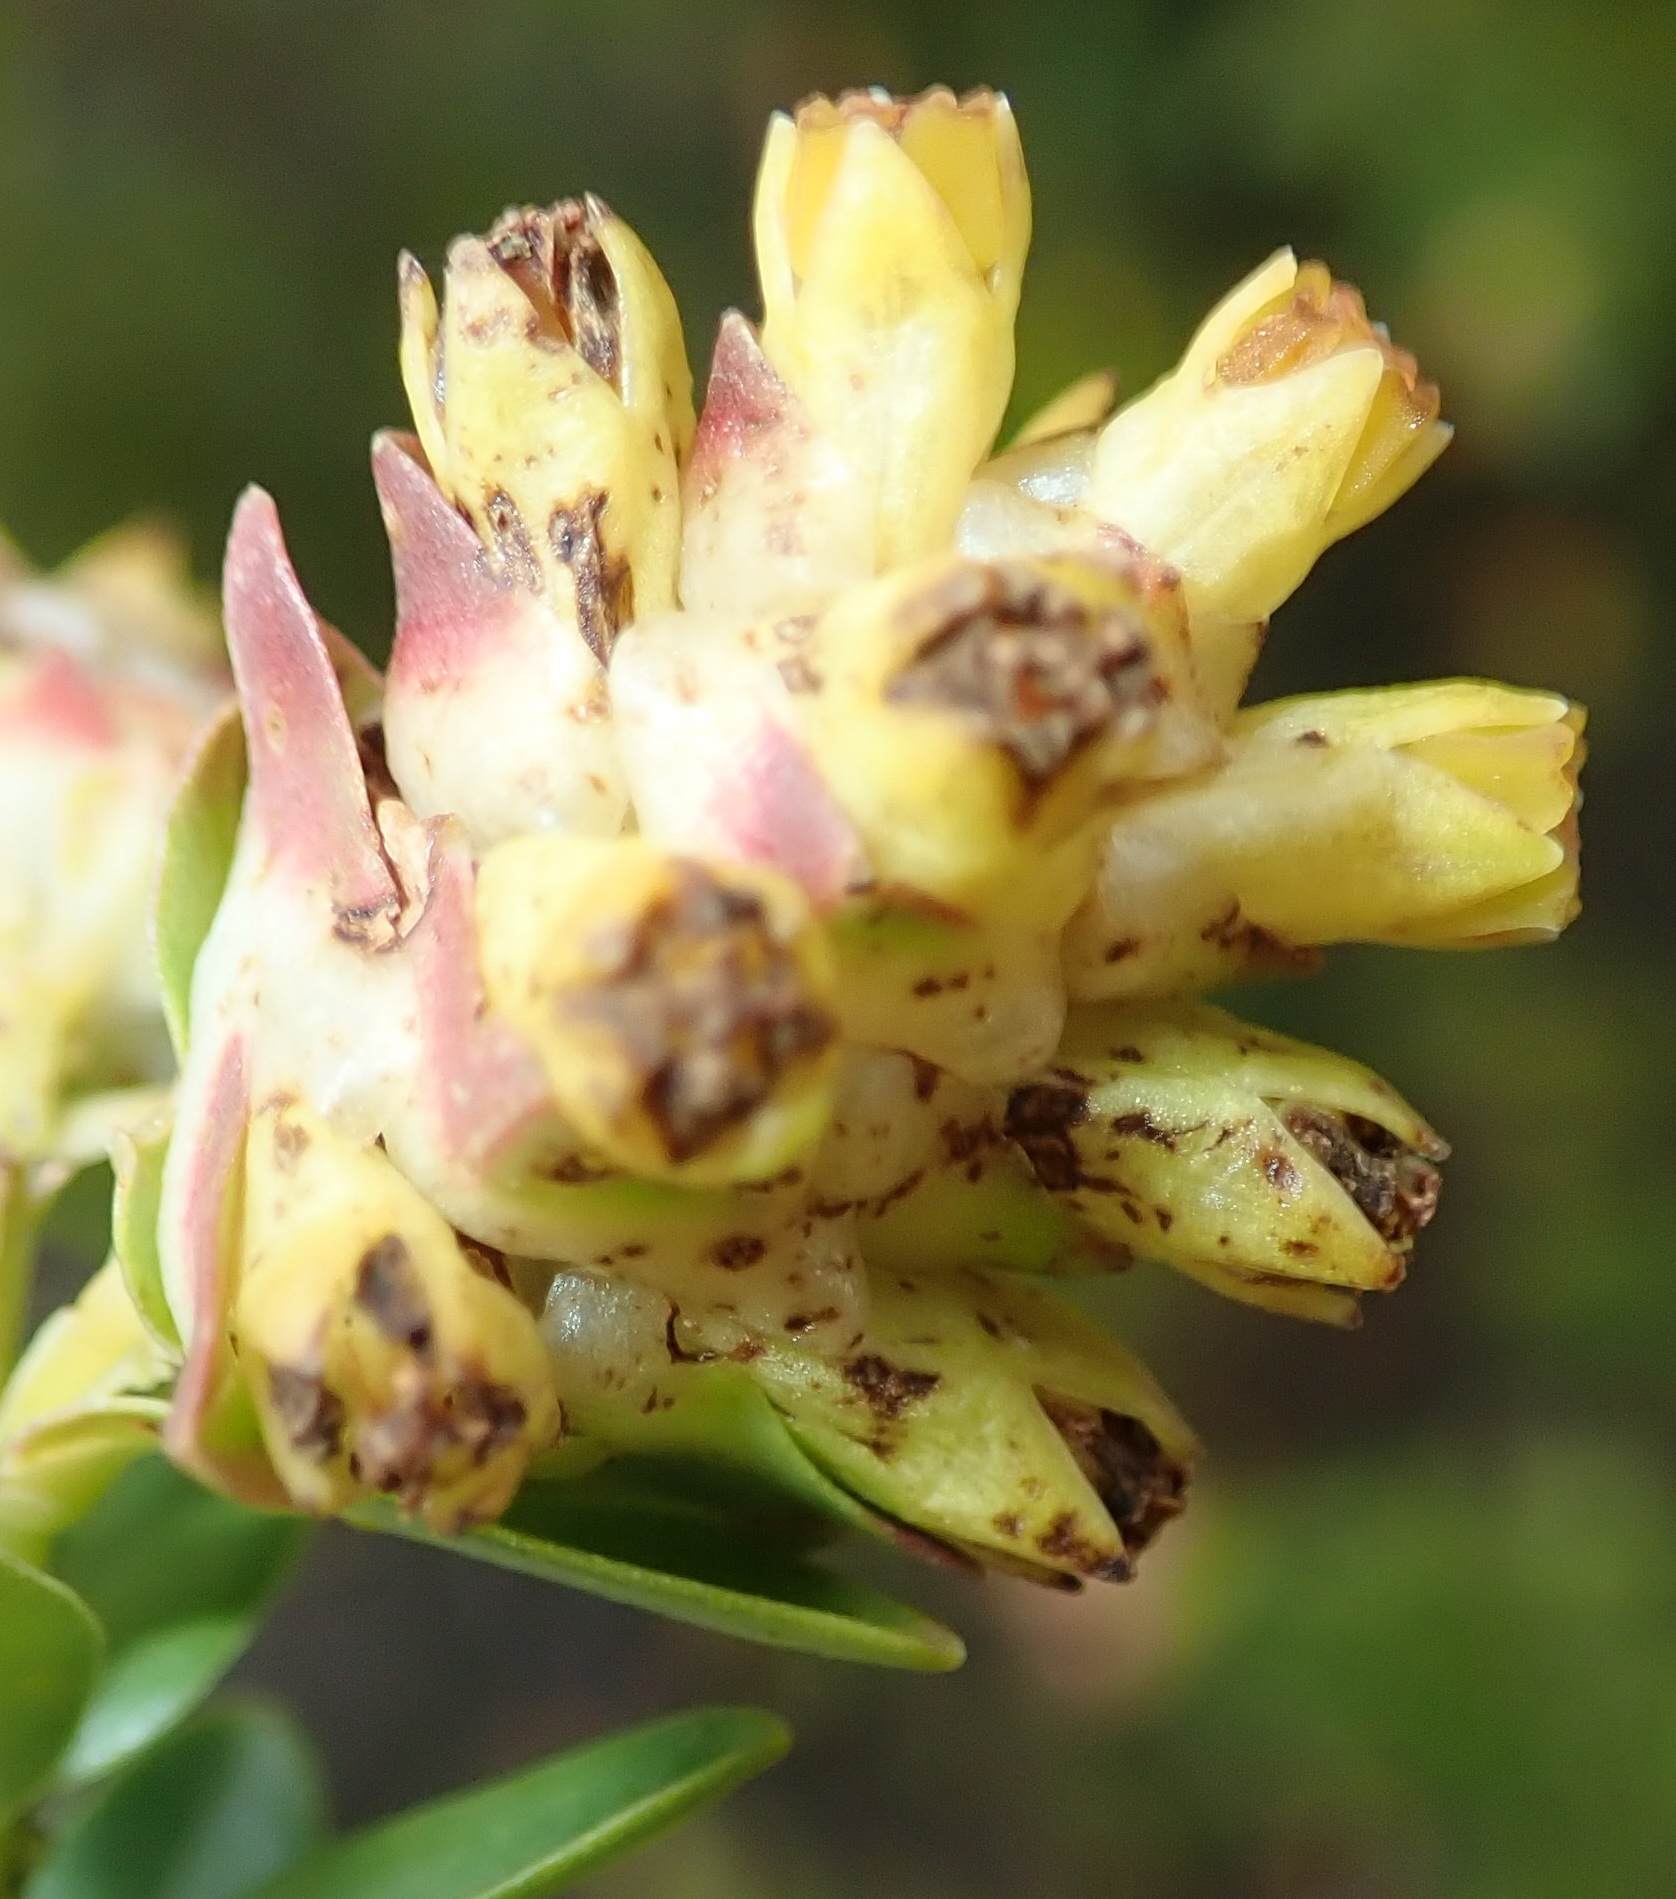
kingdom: Plantae
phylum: Tracheophyta
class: Magnoliopsida
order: Myrtales
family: Penaeaceae
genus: Penaea
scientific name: Penaea cneorum
